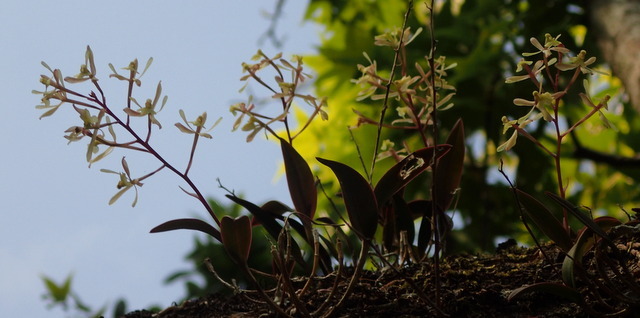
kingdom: Plantae
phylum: Tracheophyta
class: Liliopsida
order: Asparagales
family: Orchidaceae
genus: Epidendrum
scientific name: Epidendrum conopseum
